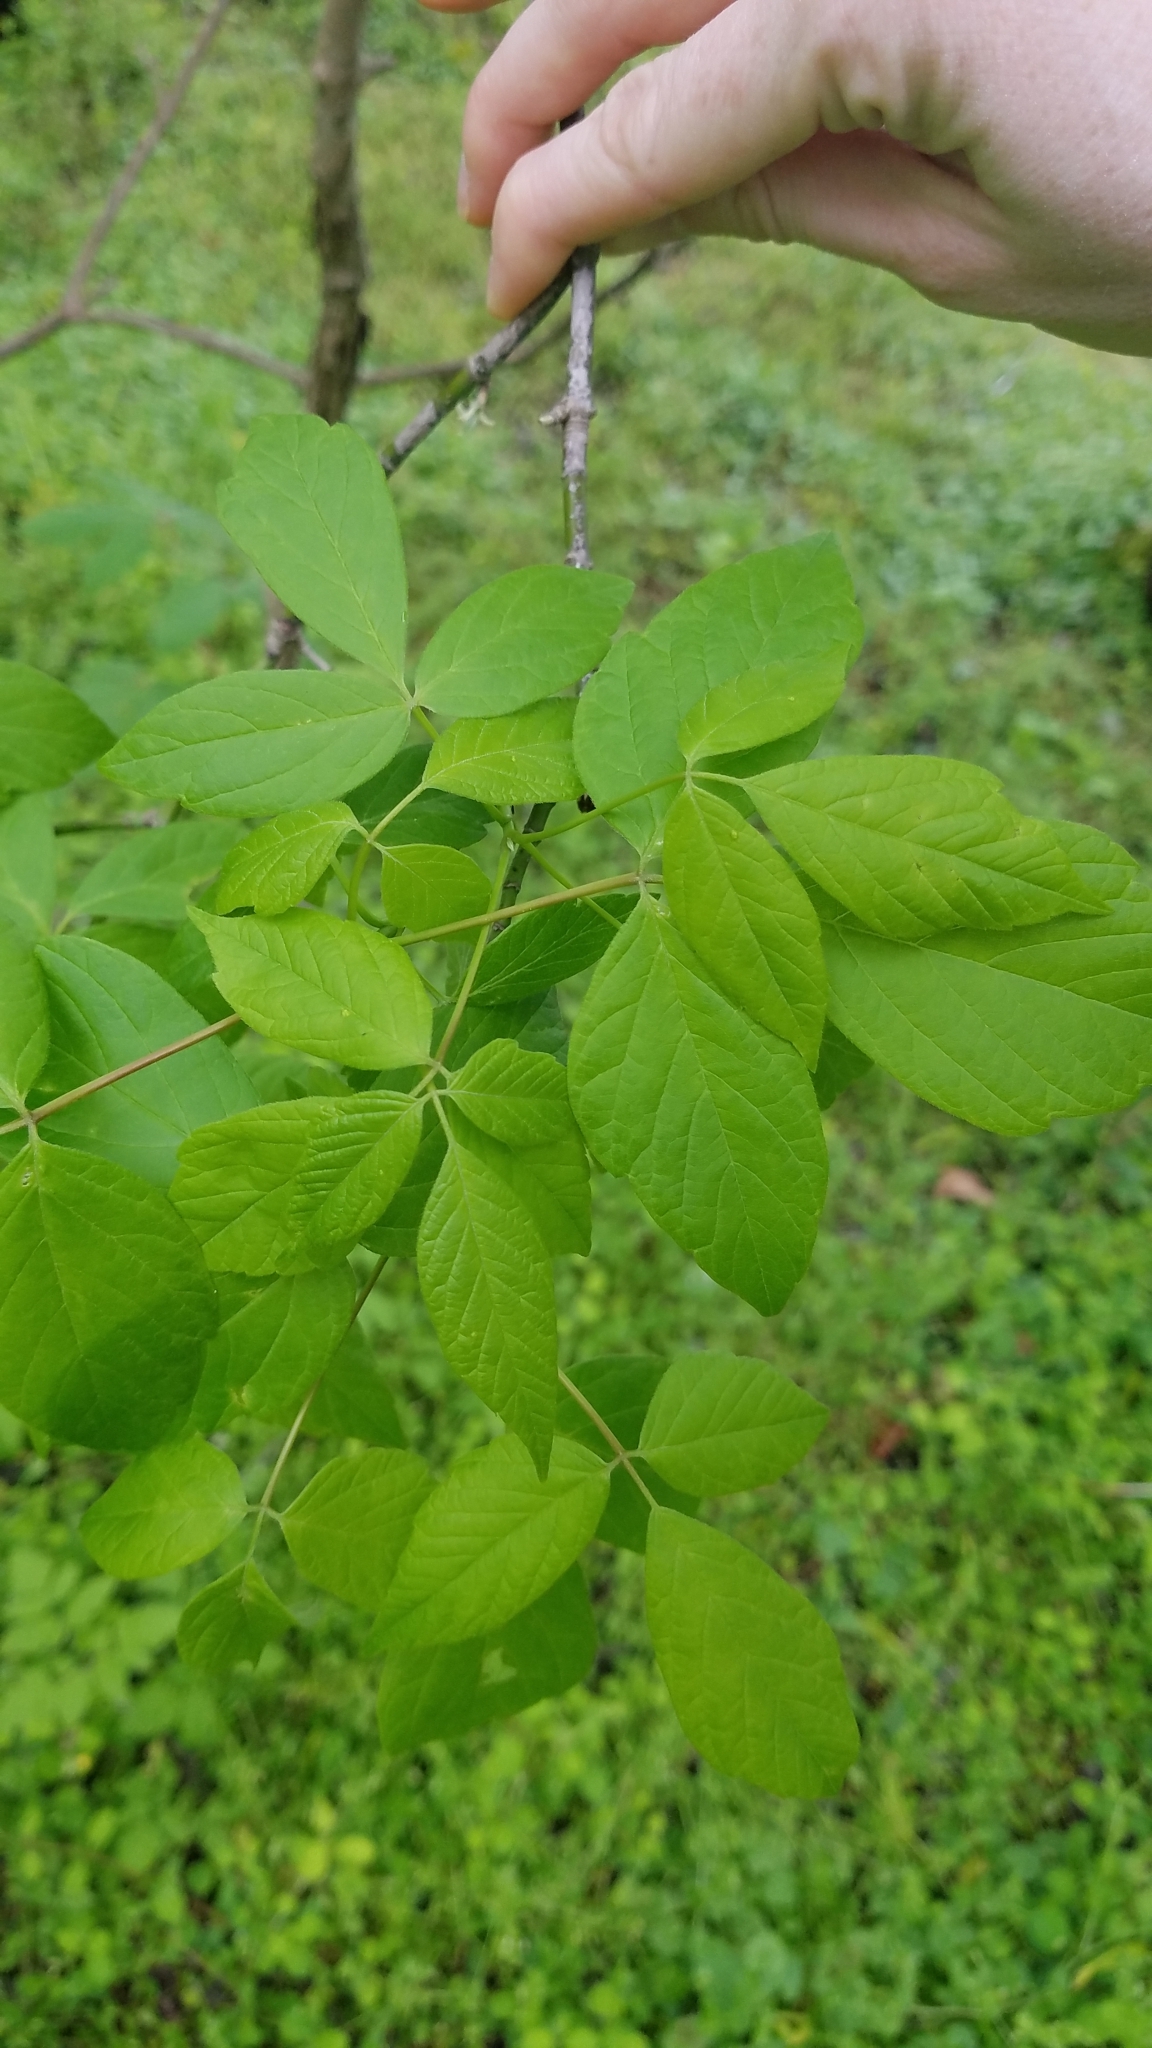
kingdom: Plantae
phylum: Tracheophyta
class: Magnoliopsida
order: Sapindales
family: Sapindaceae
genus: Acer
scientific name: Acer negundo
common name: Ashleaf maple
